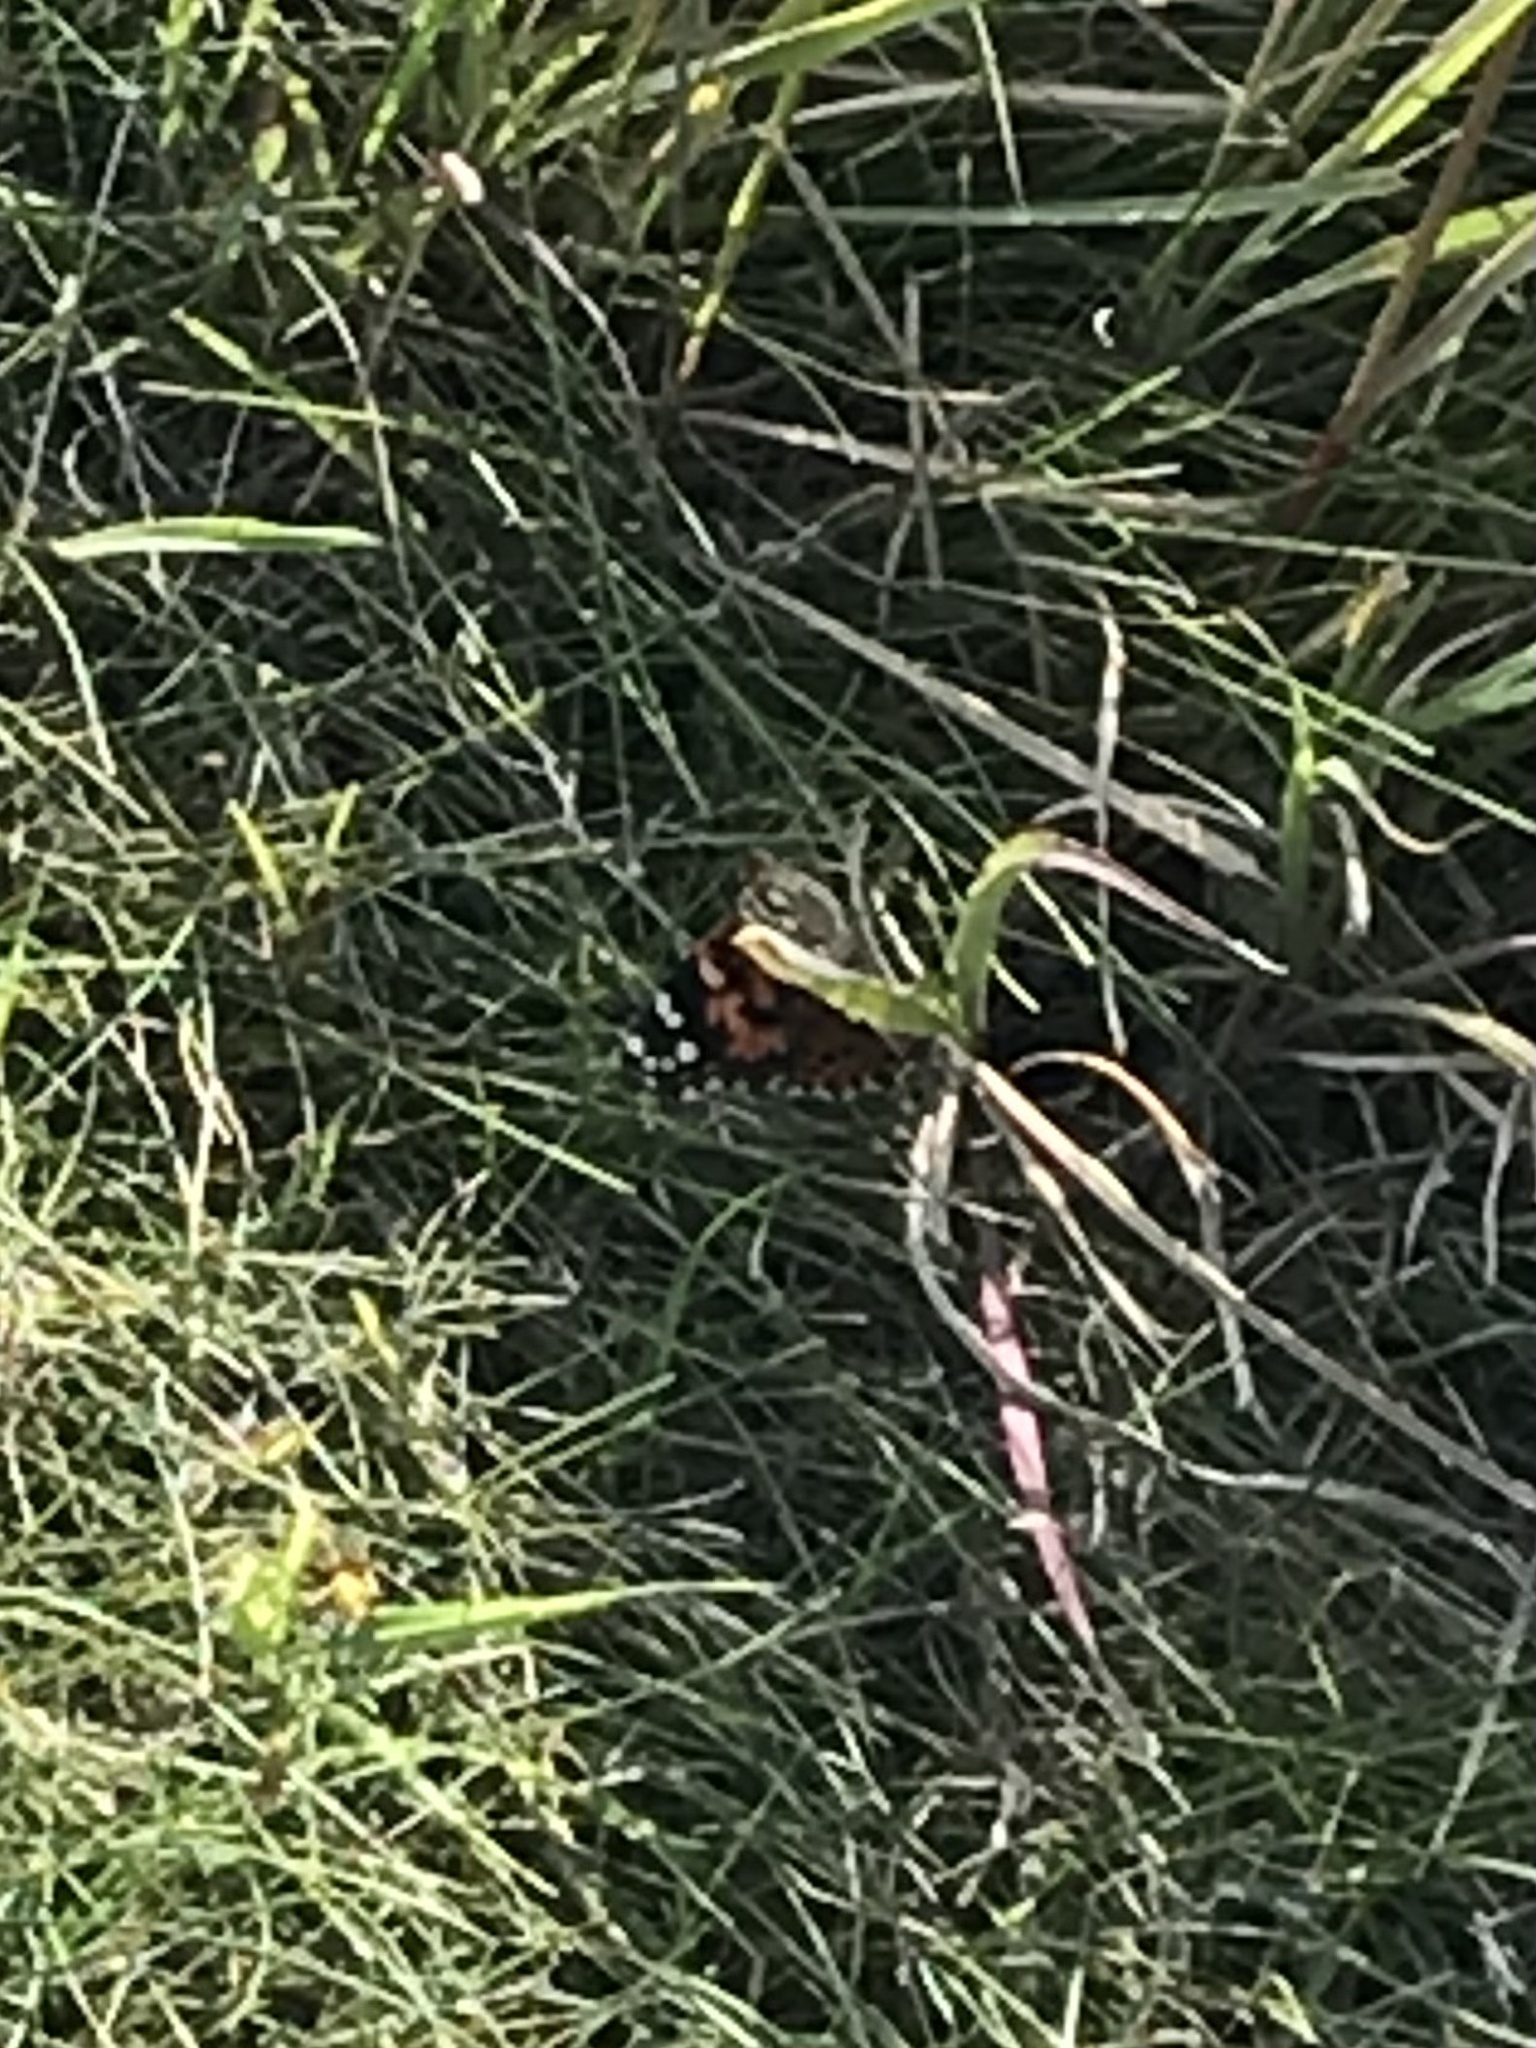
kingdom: Animalia
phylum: Arthropoda
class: Insecta
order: Lepidoptera
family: Nymphalidae
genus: Vanessa
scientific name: Vanessa cardui
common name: Painted lady
